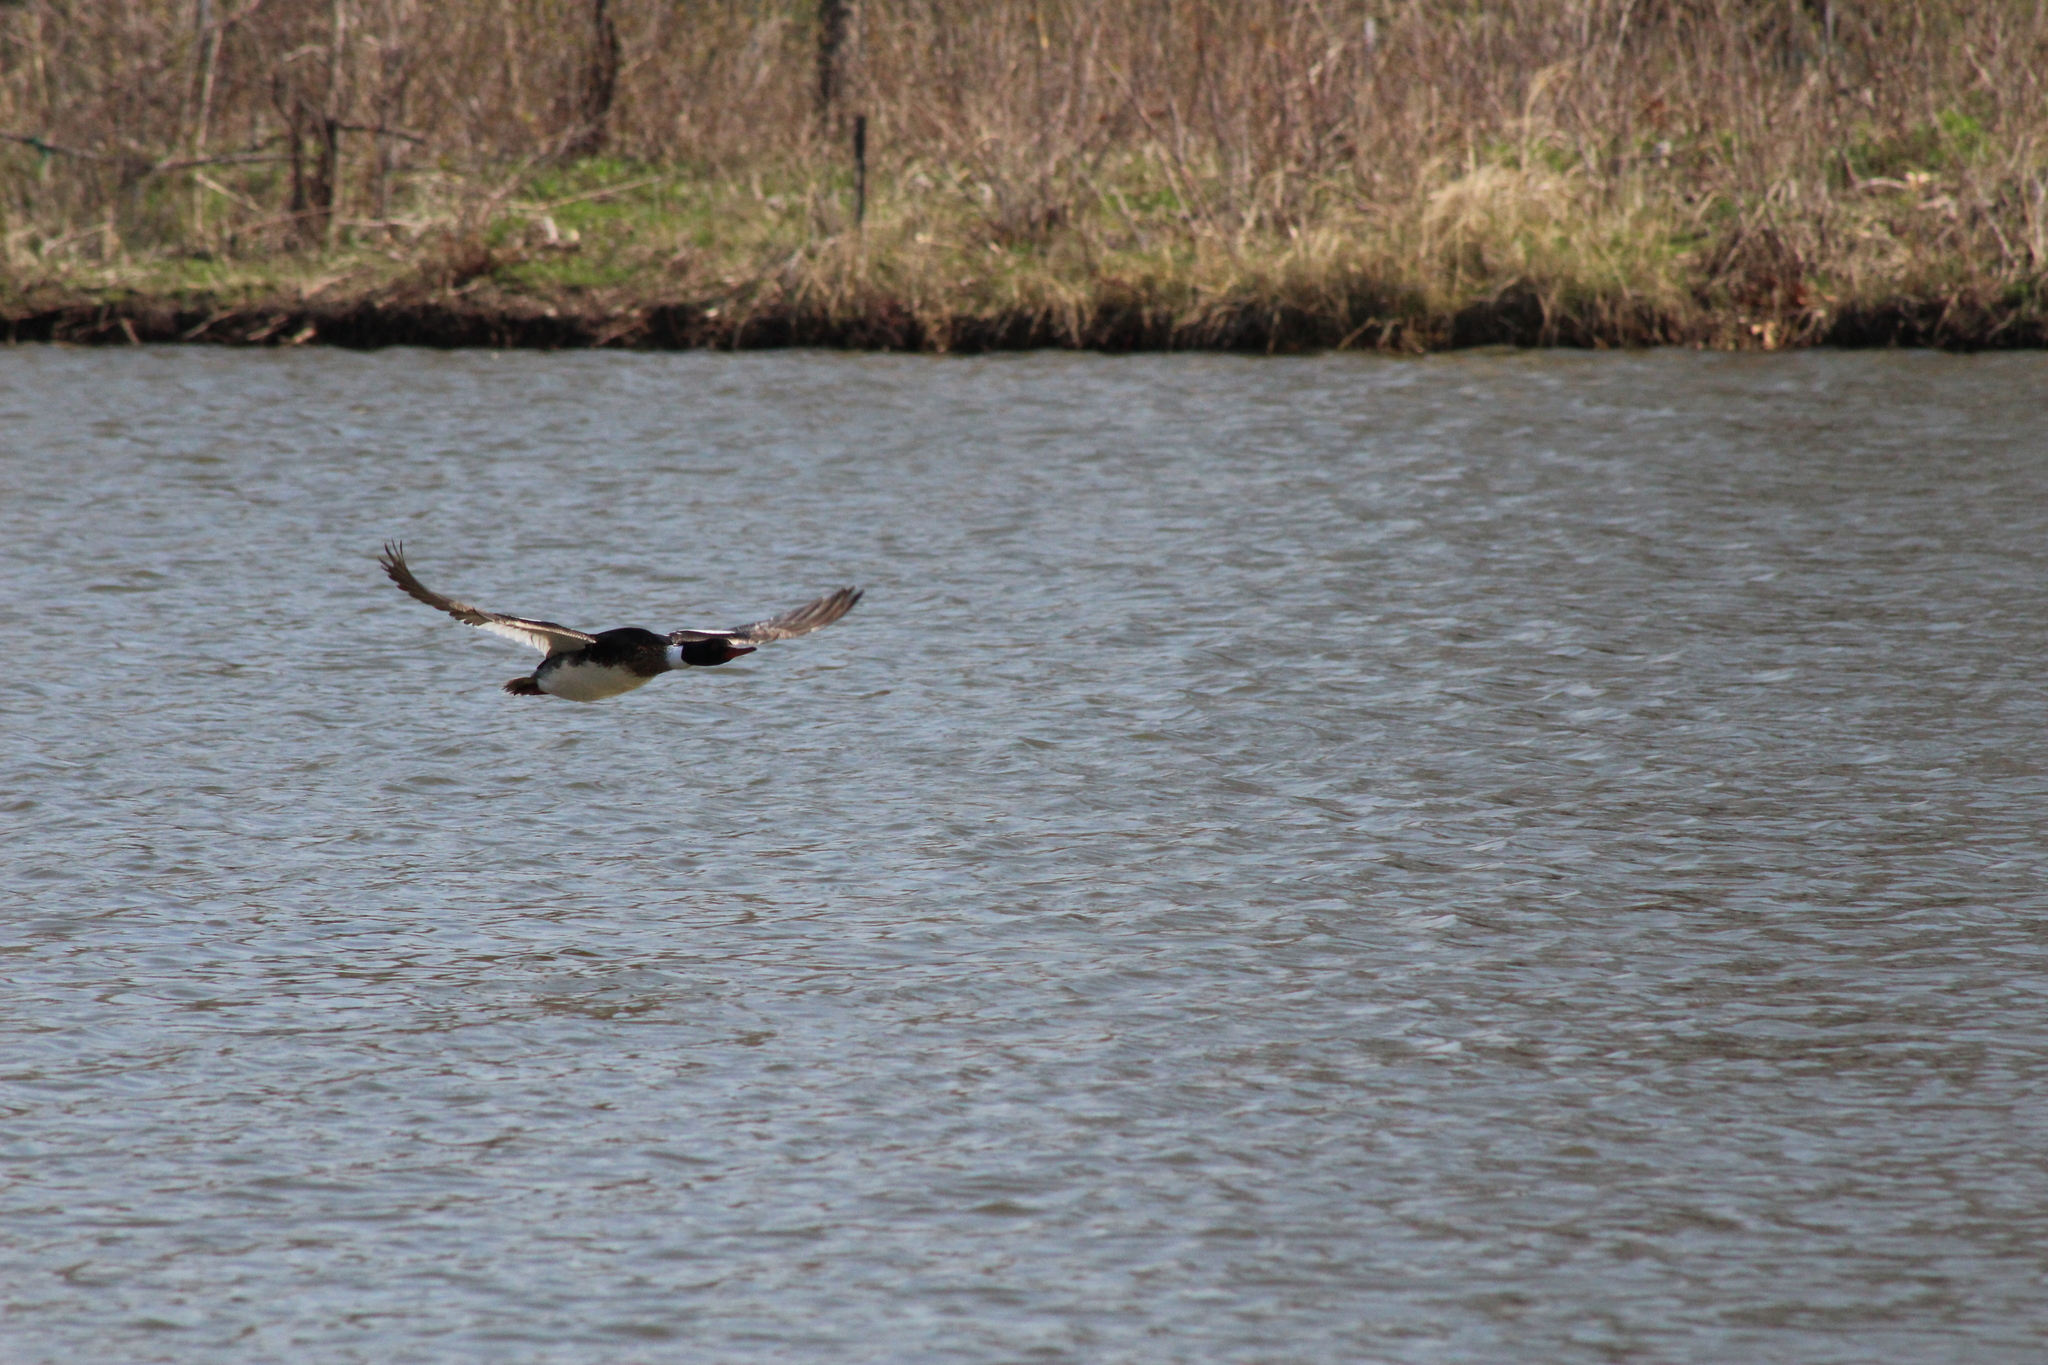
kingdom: Animalia
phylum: Chordata
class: Aves
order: Anseriformes
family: Anatidae
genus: Mergus
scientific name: Mergus serrator
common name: Red-breasted merganser
